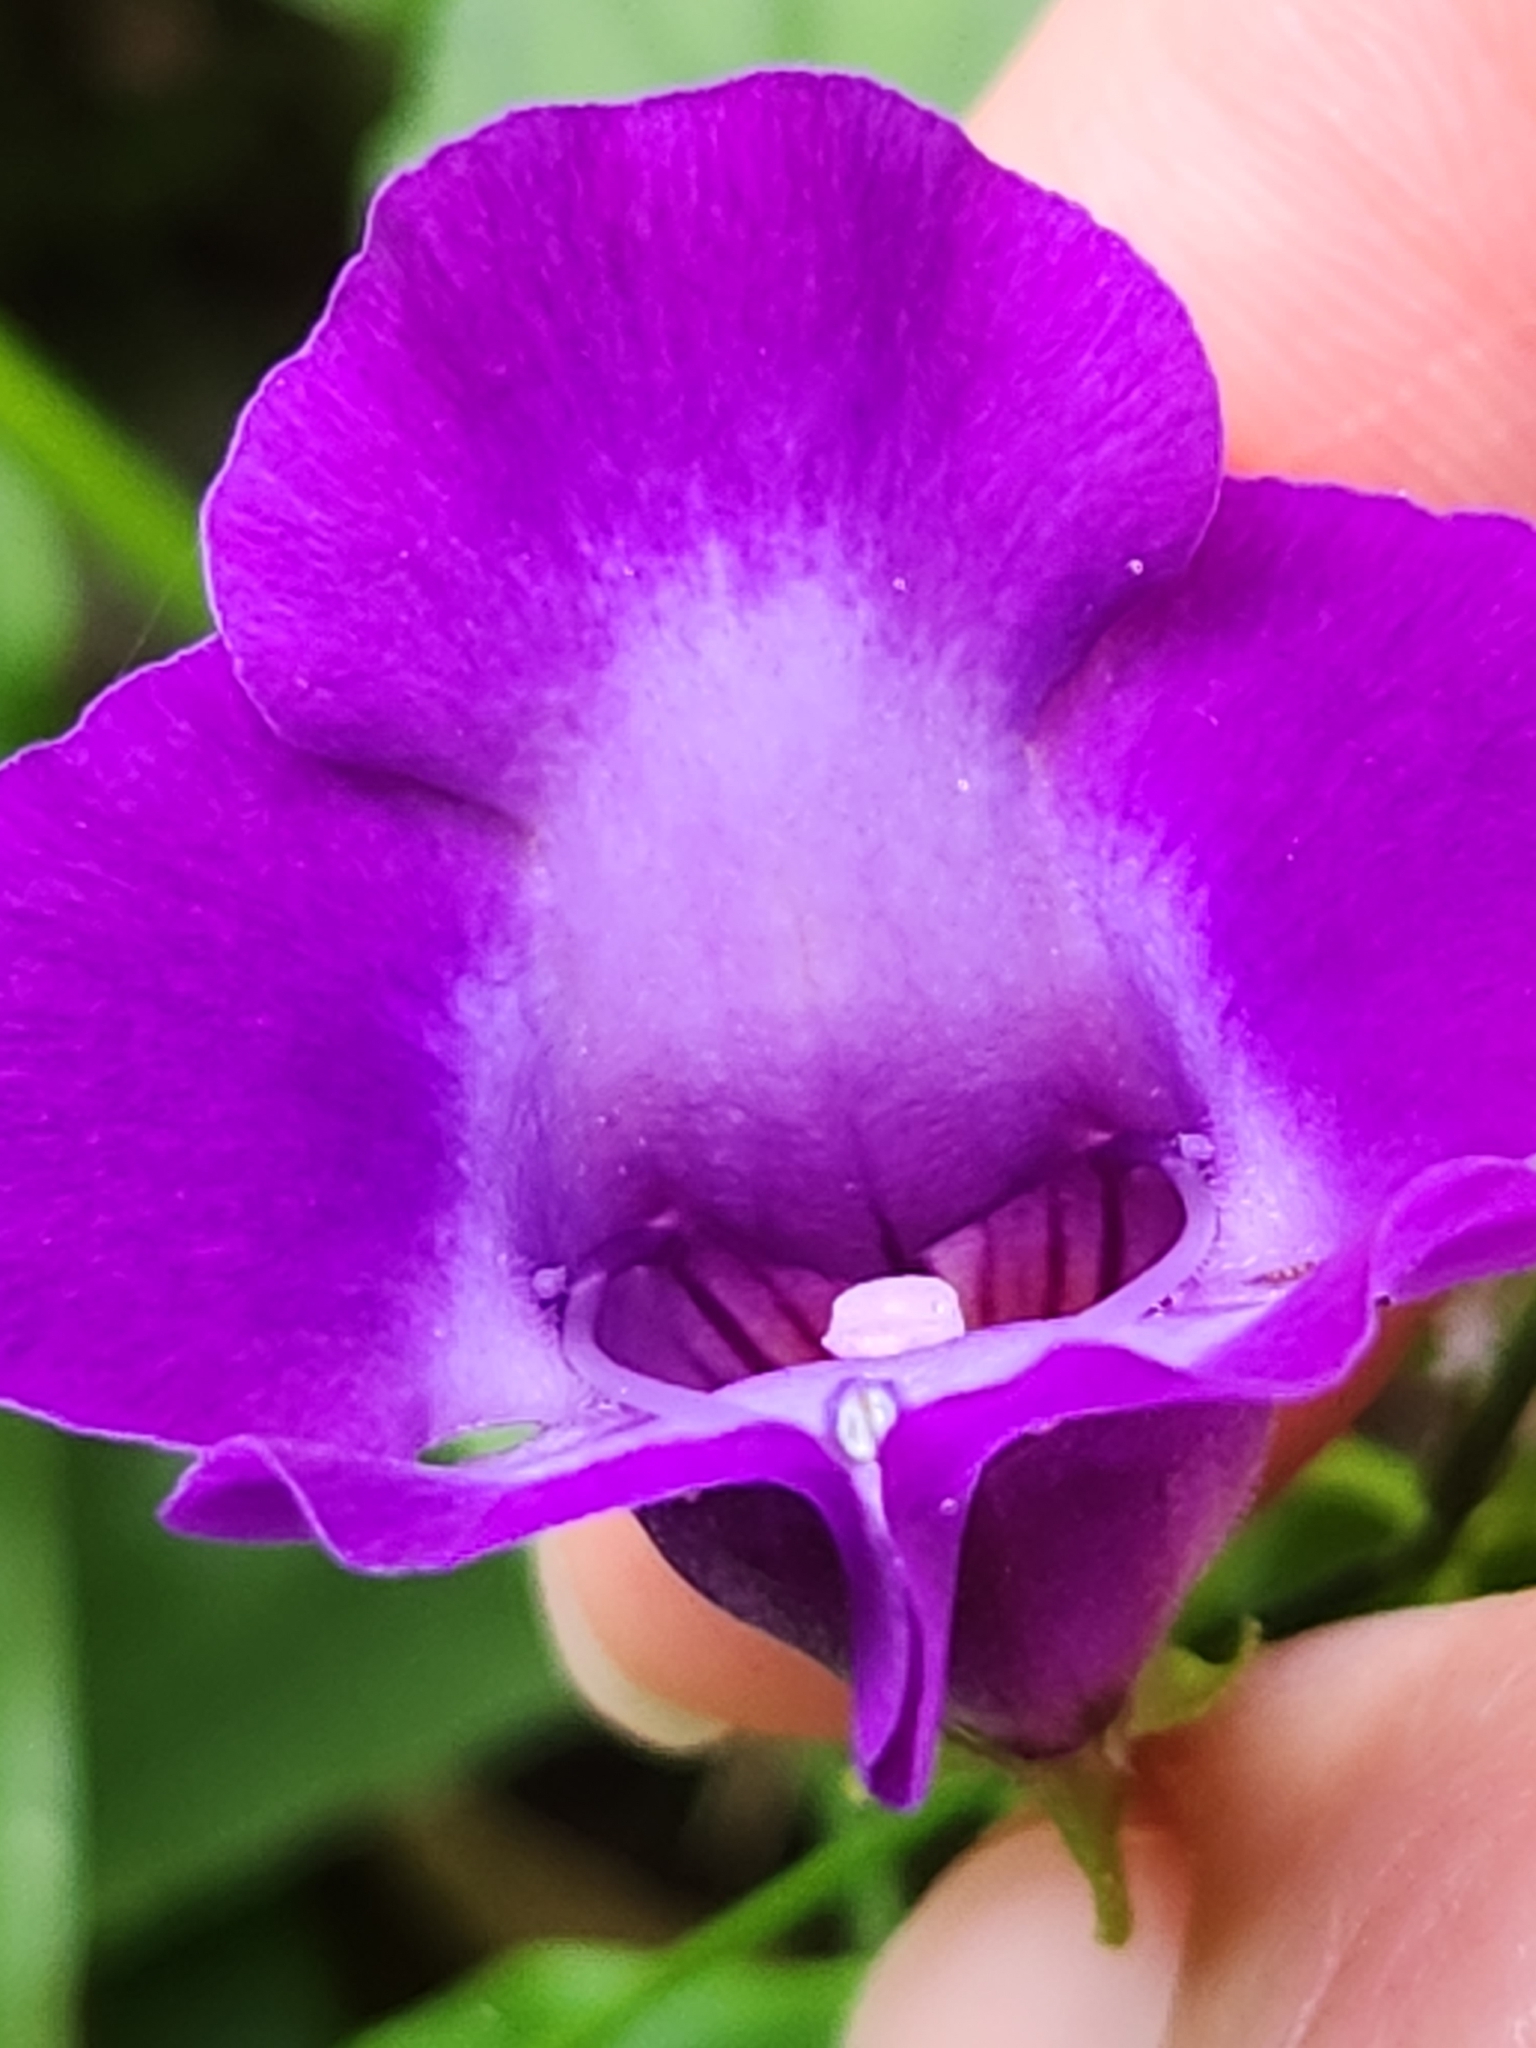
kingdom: Plantae
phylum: Tracheophyta
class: Magnoliopsida
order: Lamiales
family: Linderniaceae
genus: Torenia
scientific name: Torenia concolor
